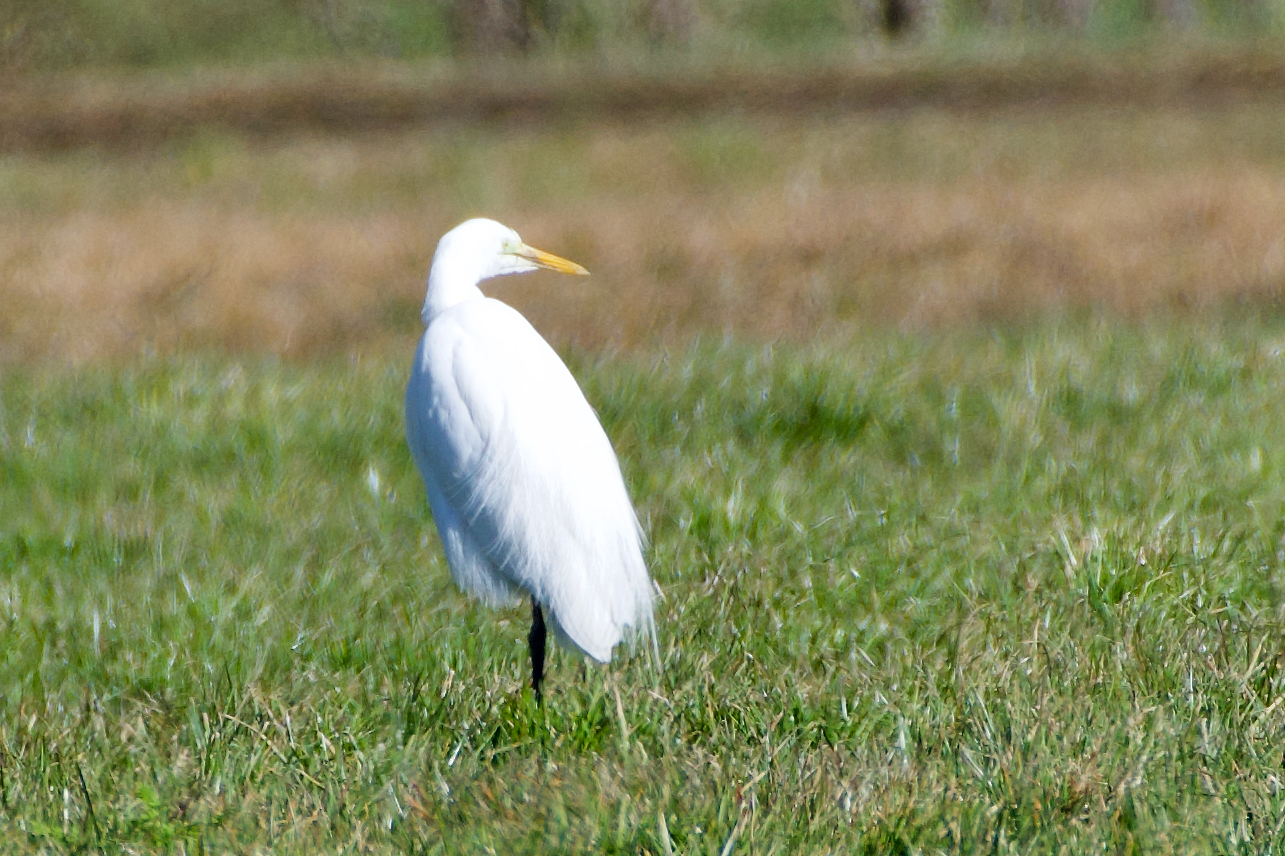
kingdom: Animalia
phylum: Chordata
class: Aves
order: Pelecaniformes
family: Ardeidae
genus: Ardea
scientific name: Ardea alba
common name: Great egret
